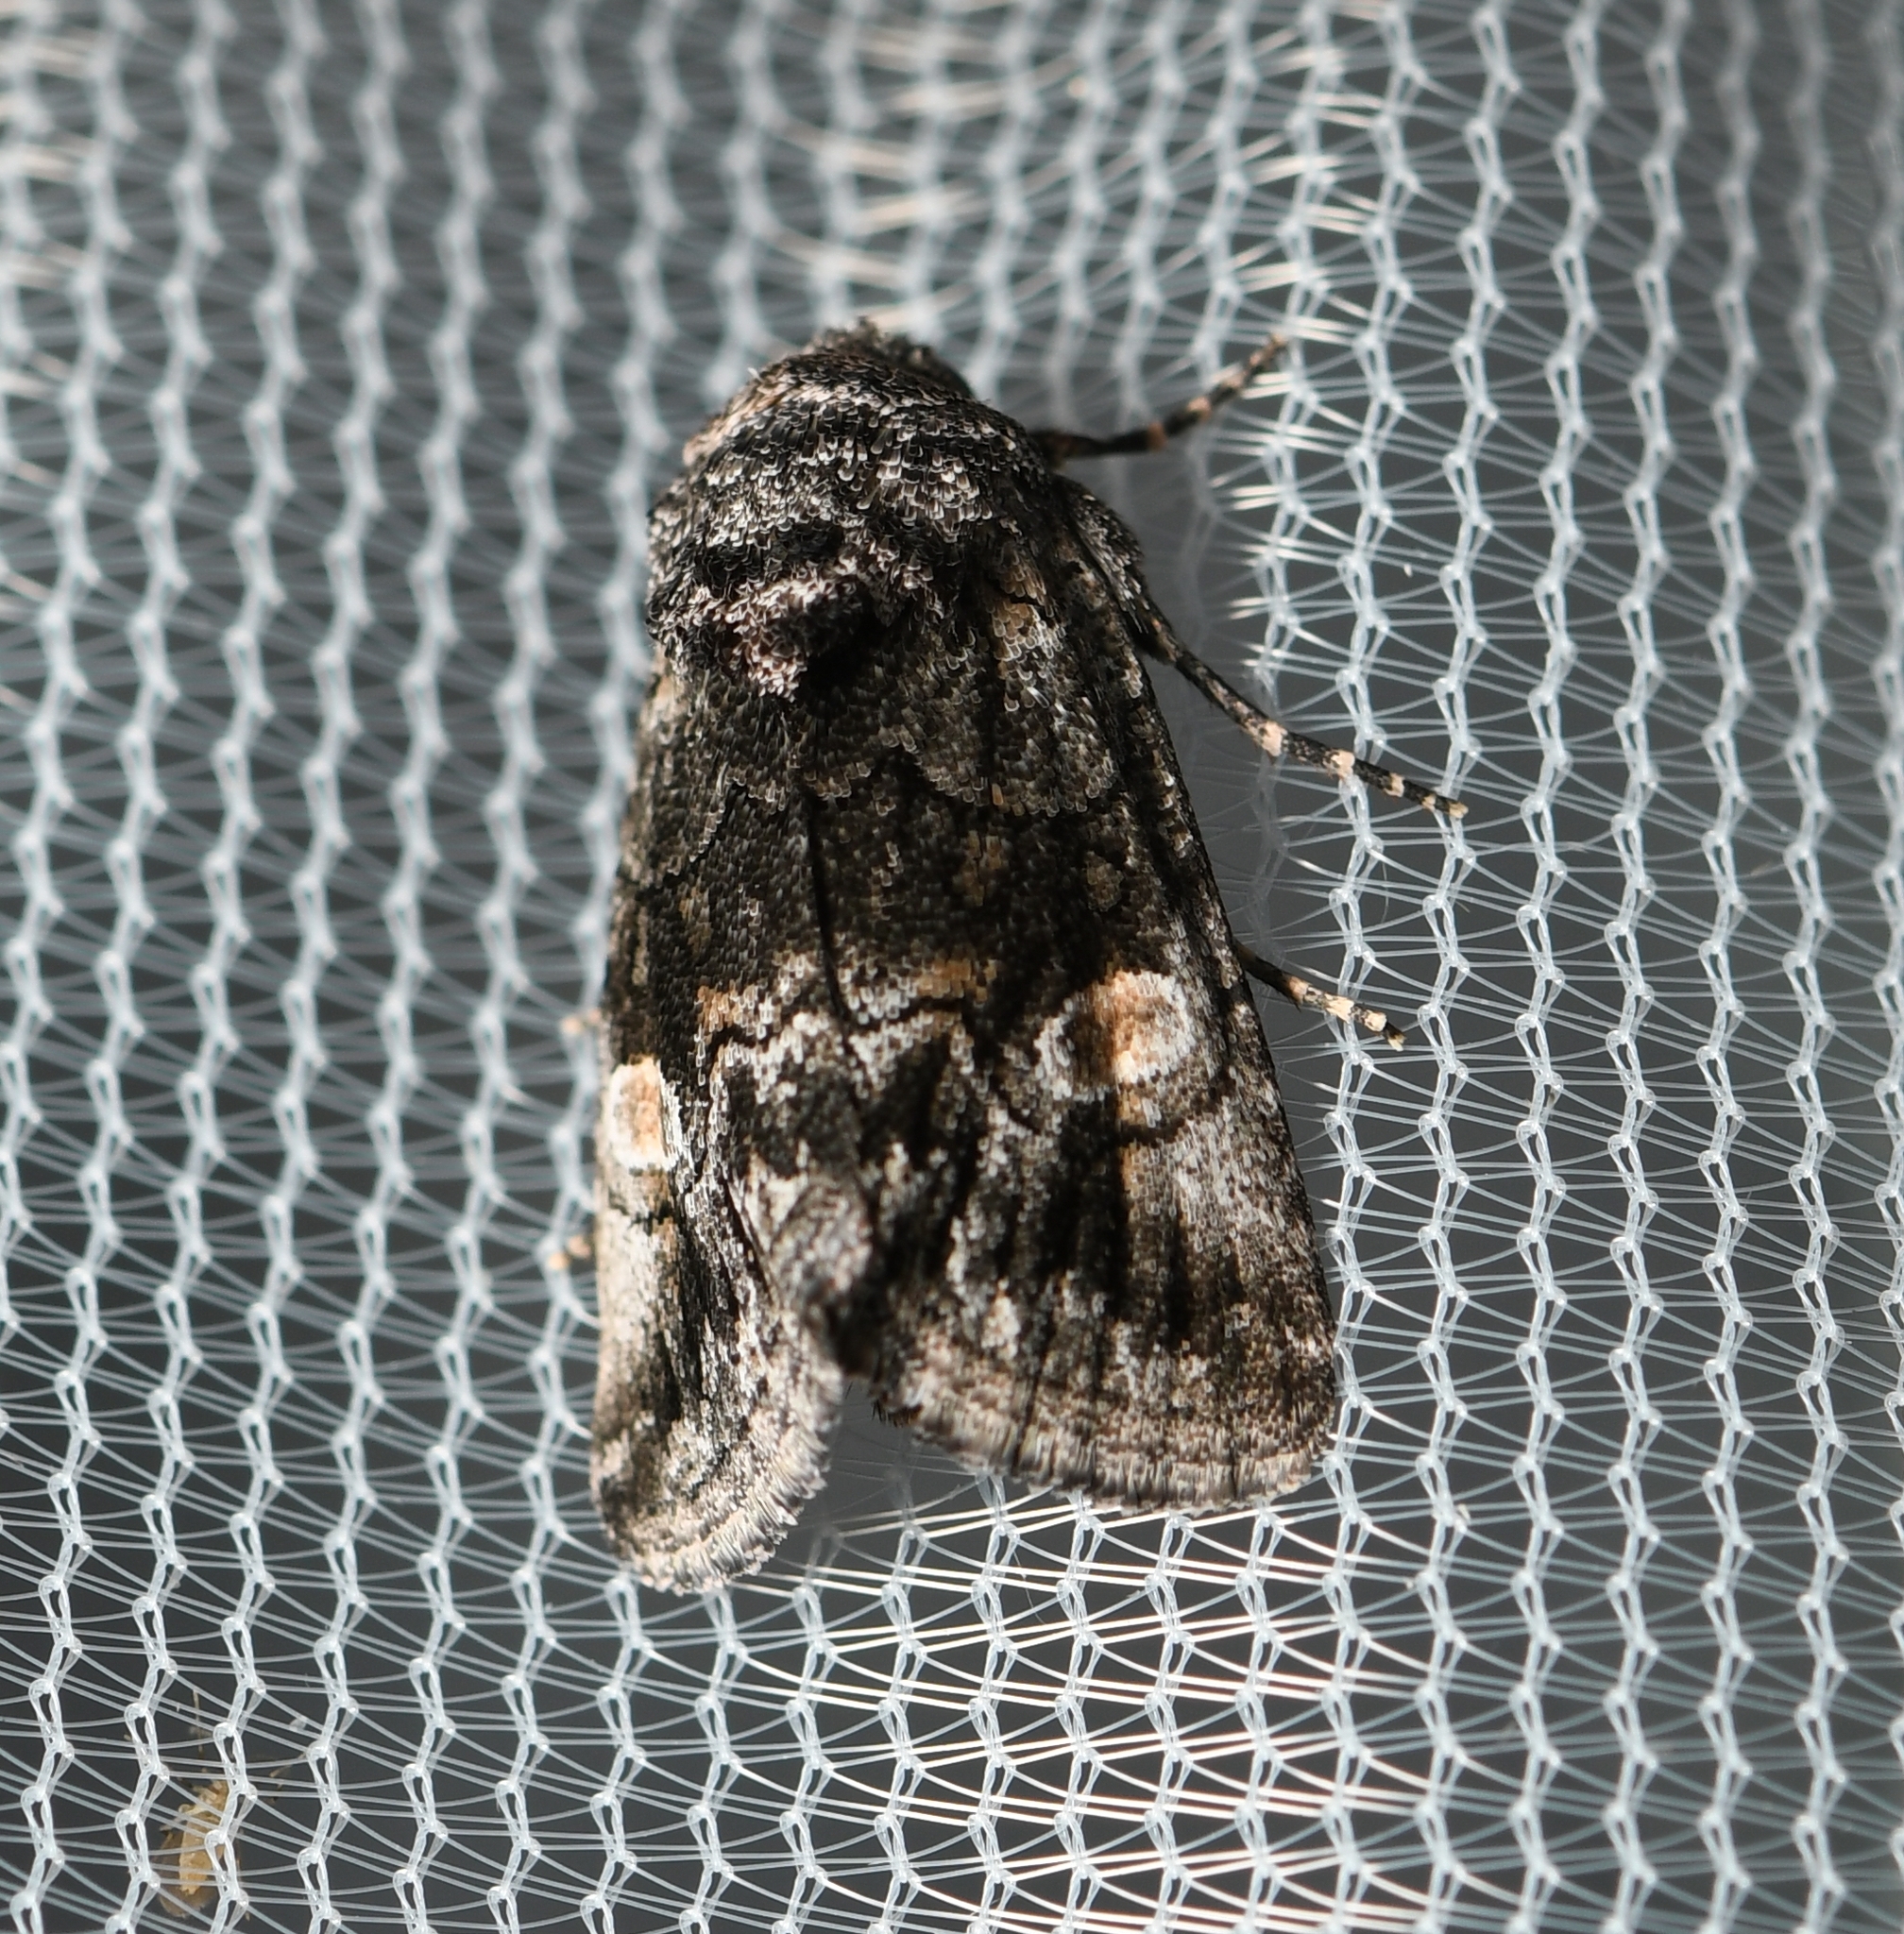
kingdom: Animalia
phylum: Arthropoda
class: Insecta
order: Lepidoptera
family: Noctuidae
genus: Copanarta
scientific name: Copanarta aurea
